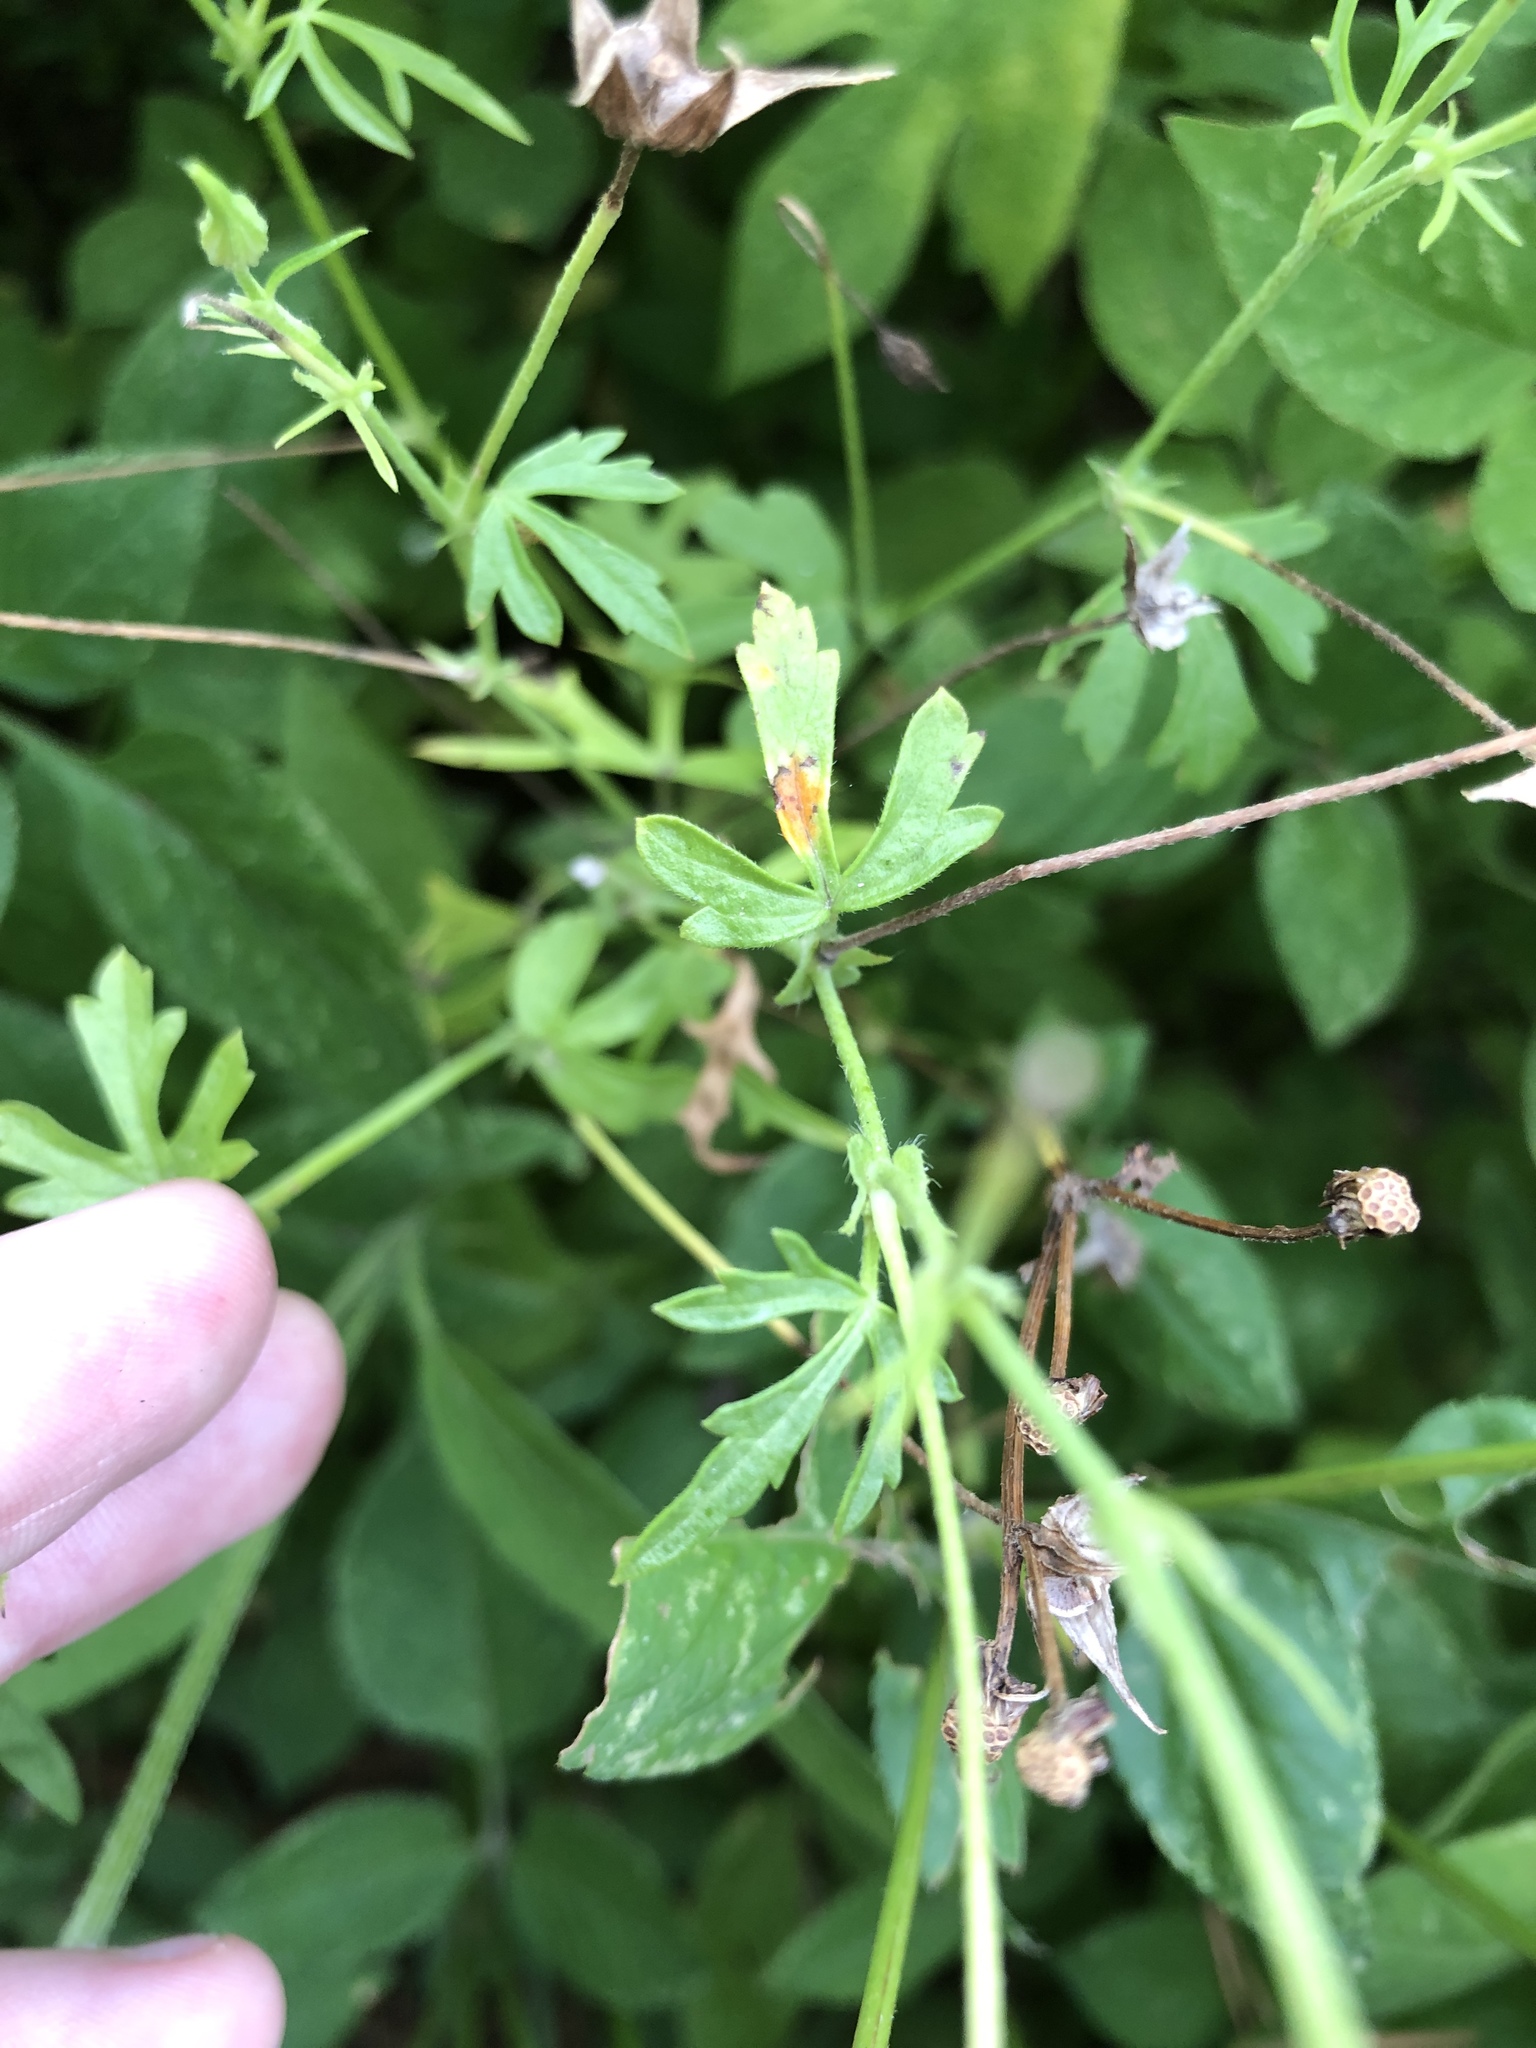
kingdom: Plantae
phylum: Tracheophyta
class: Magnoliopsida
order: Malvales
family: Malvaceae
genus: Callirhoe
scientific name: Callirhoe leiocarpa
